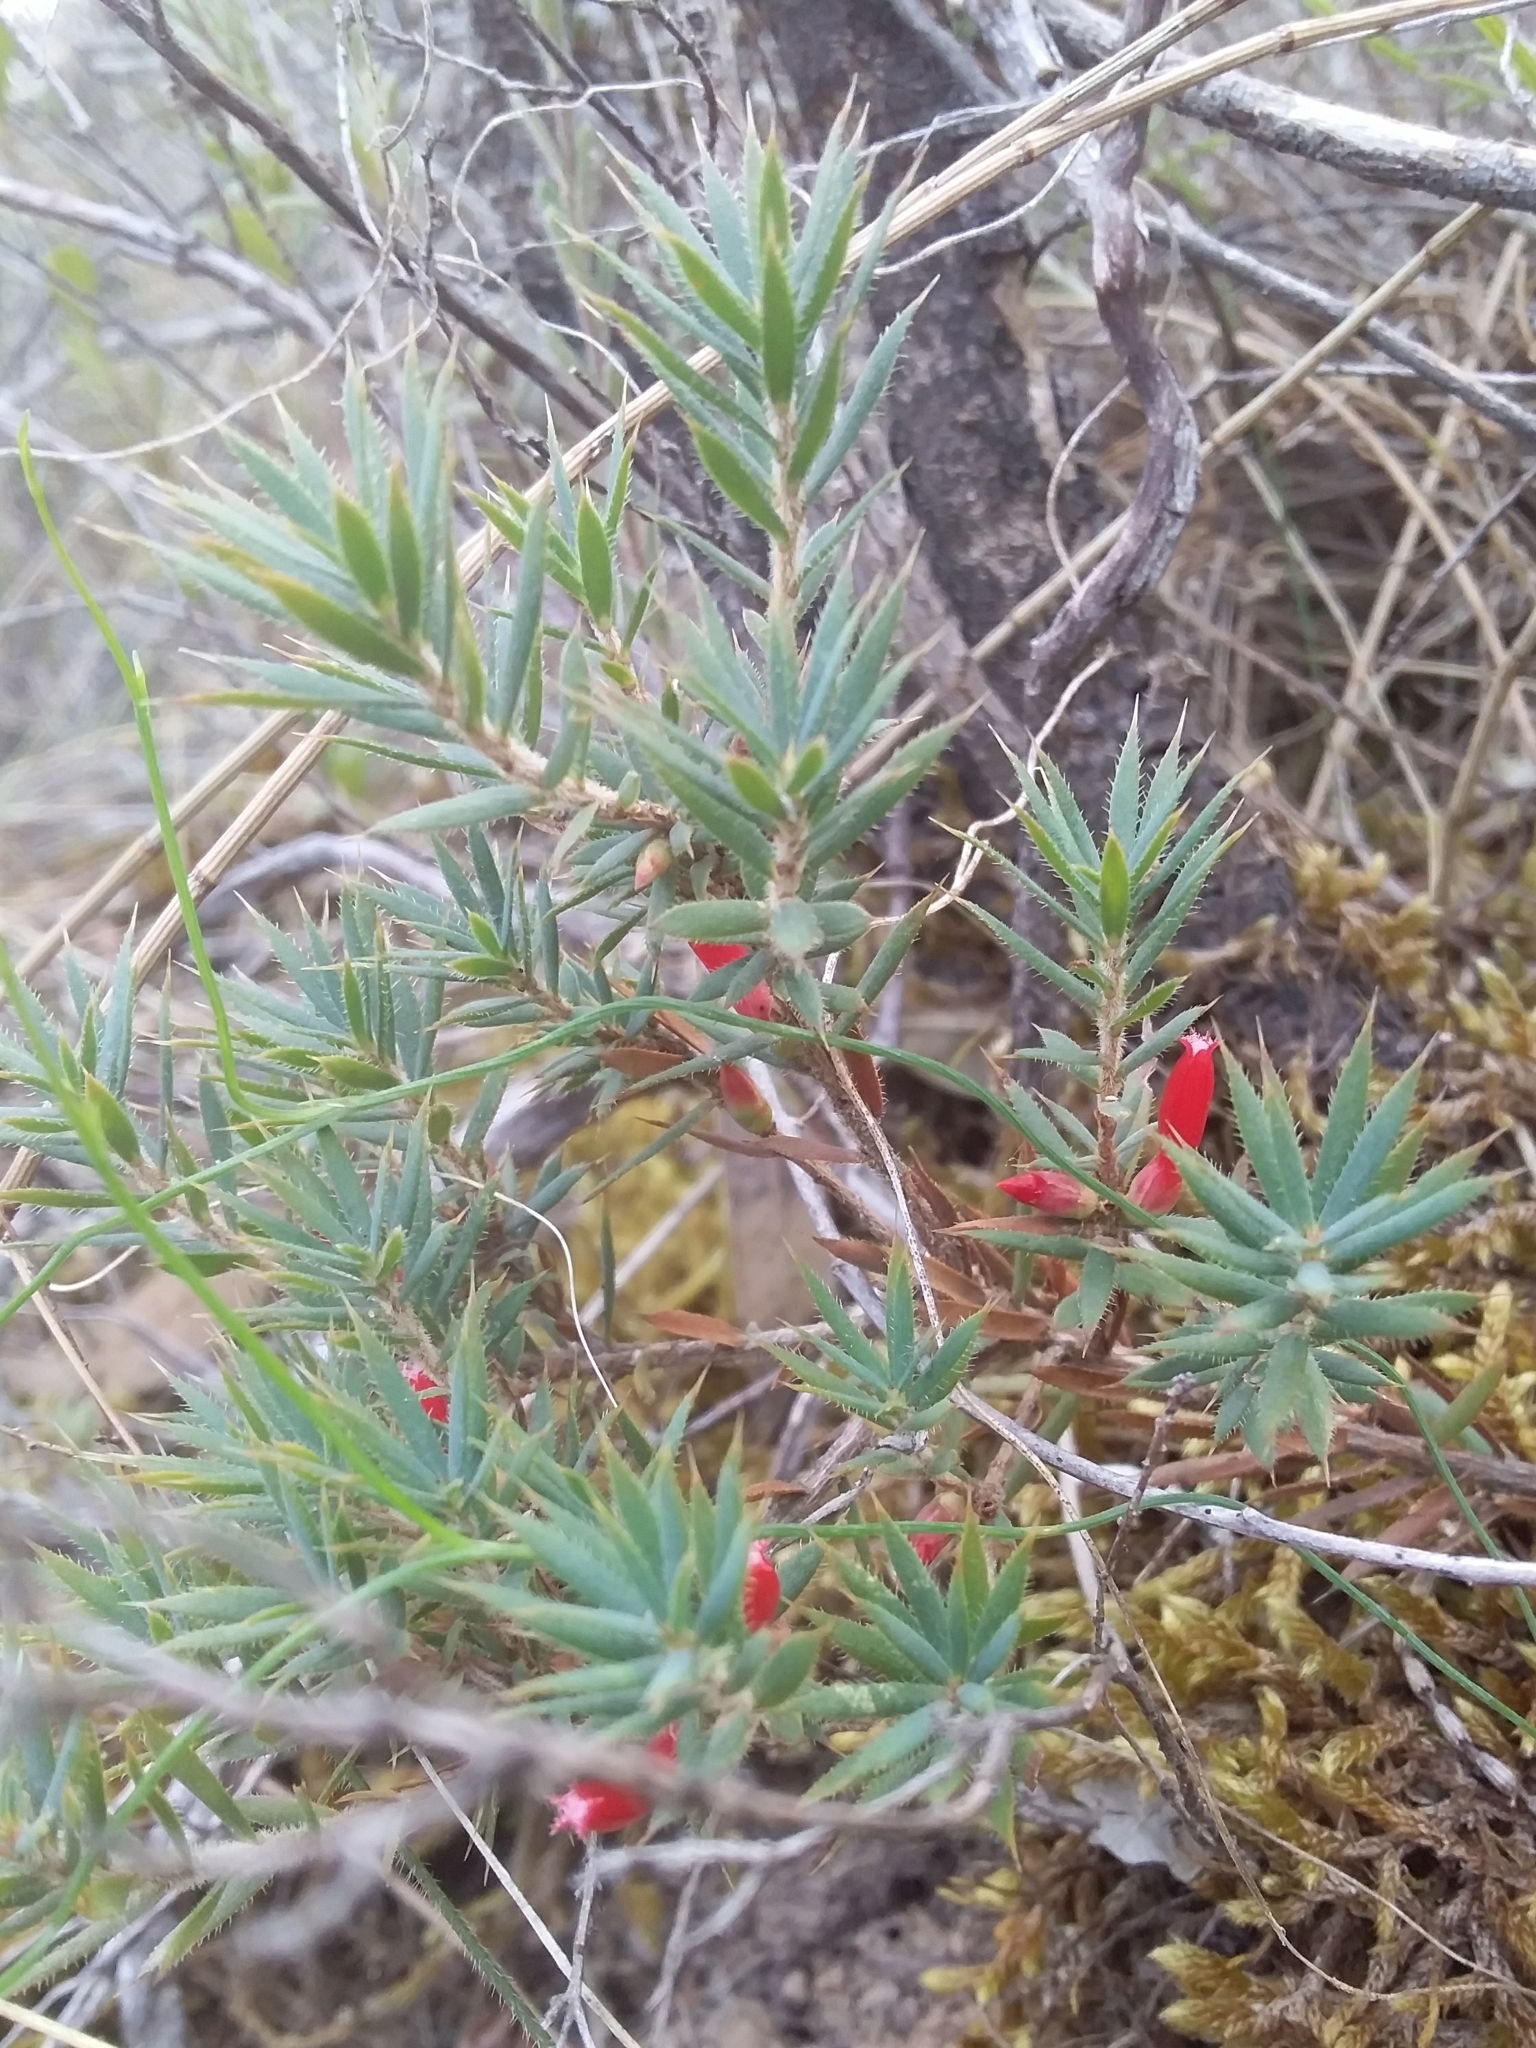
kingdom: Plantae
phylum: Tracheophyta
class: Magnoliopsida
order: Ericales
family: Ericaceae
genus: Styphelia
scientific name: Styphelia humifusa
